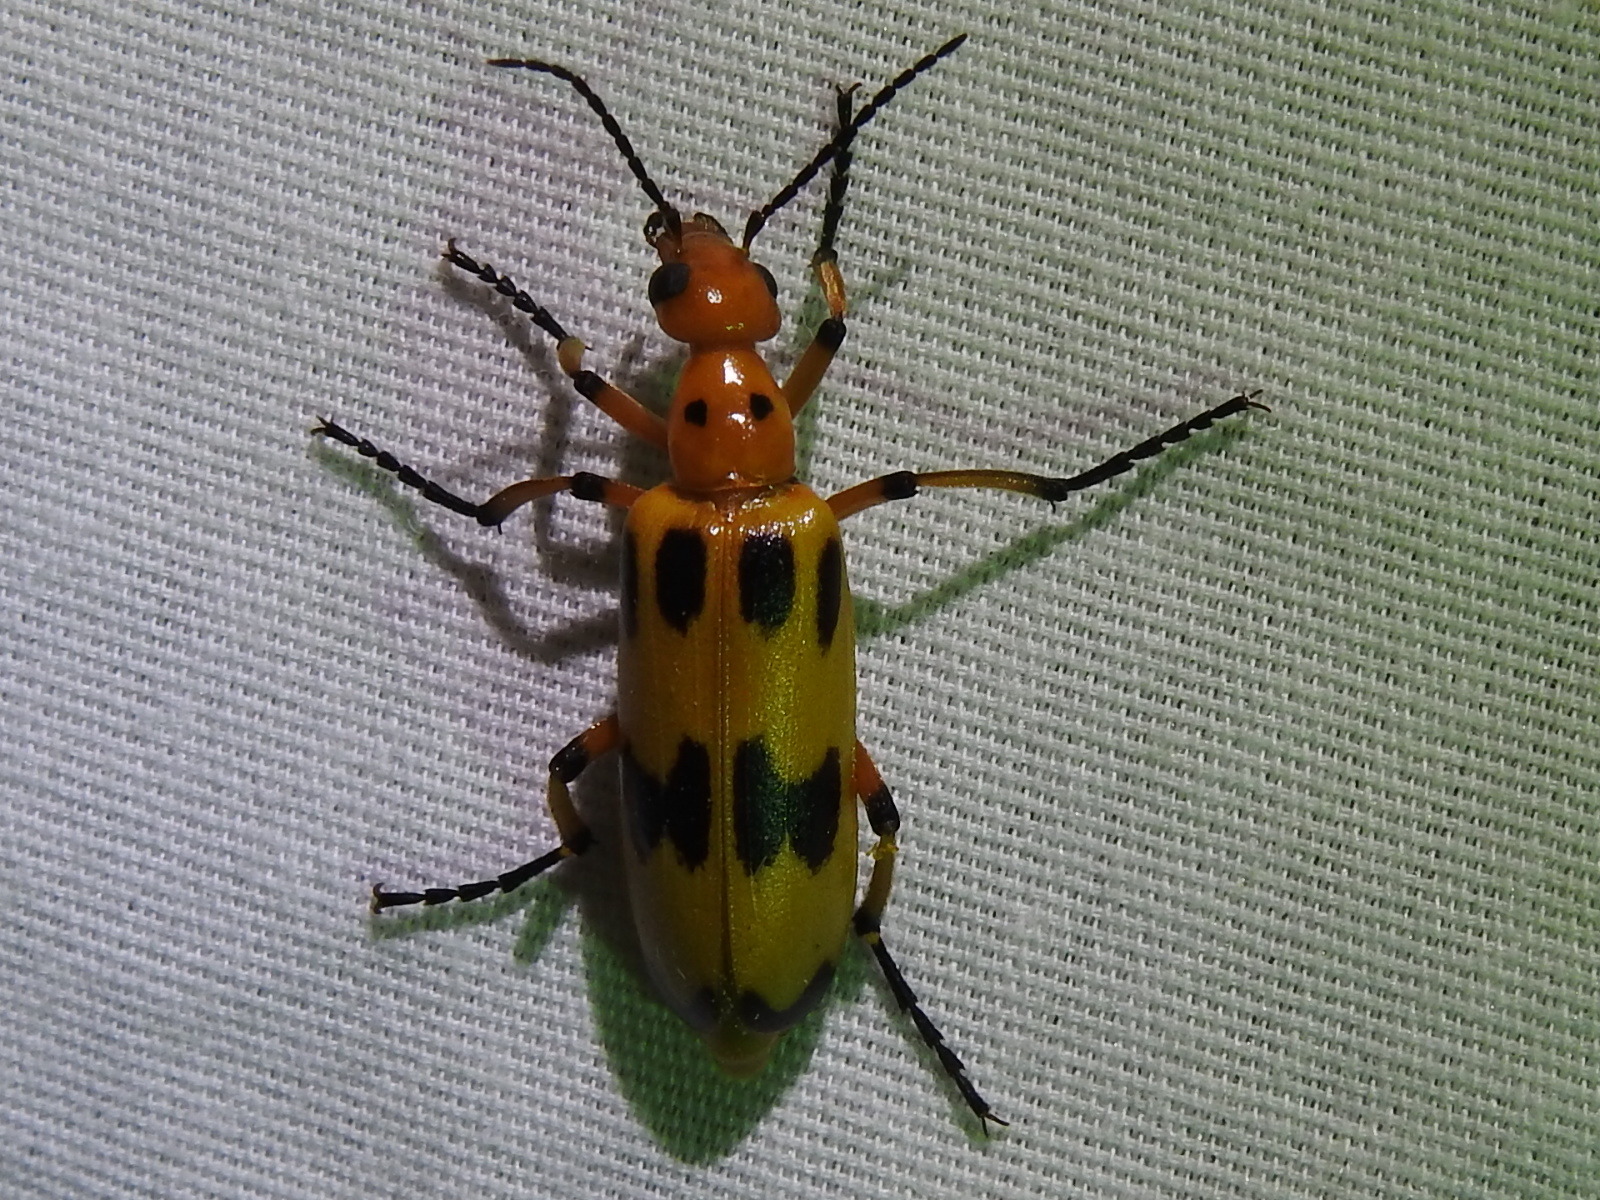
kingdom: Animalia
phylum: Arthropoda
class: Insecta
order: Coleoptera
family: Meloidae
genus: Pyrota
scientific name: Pyrota fasciata
